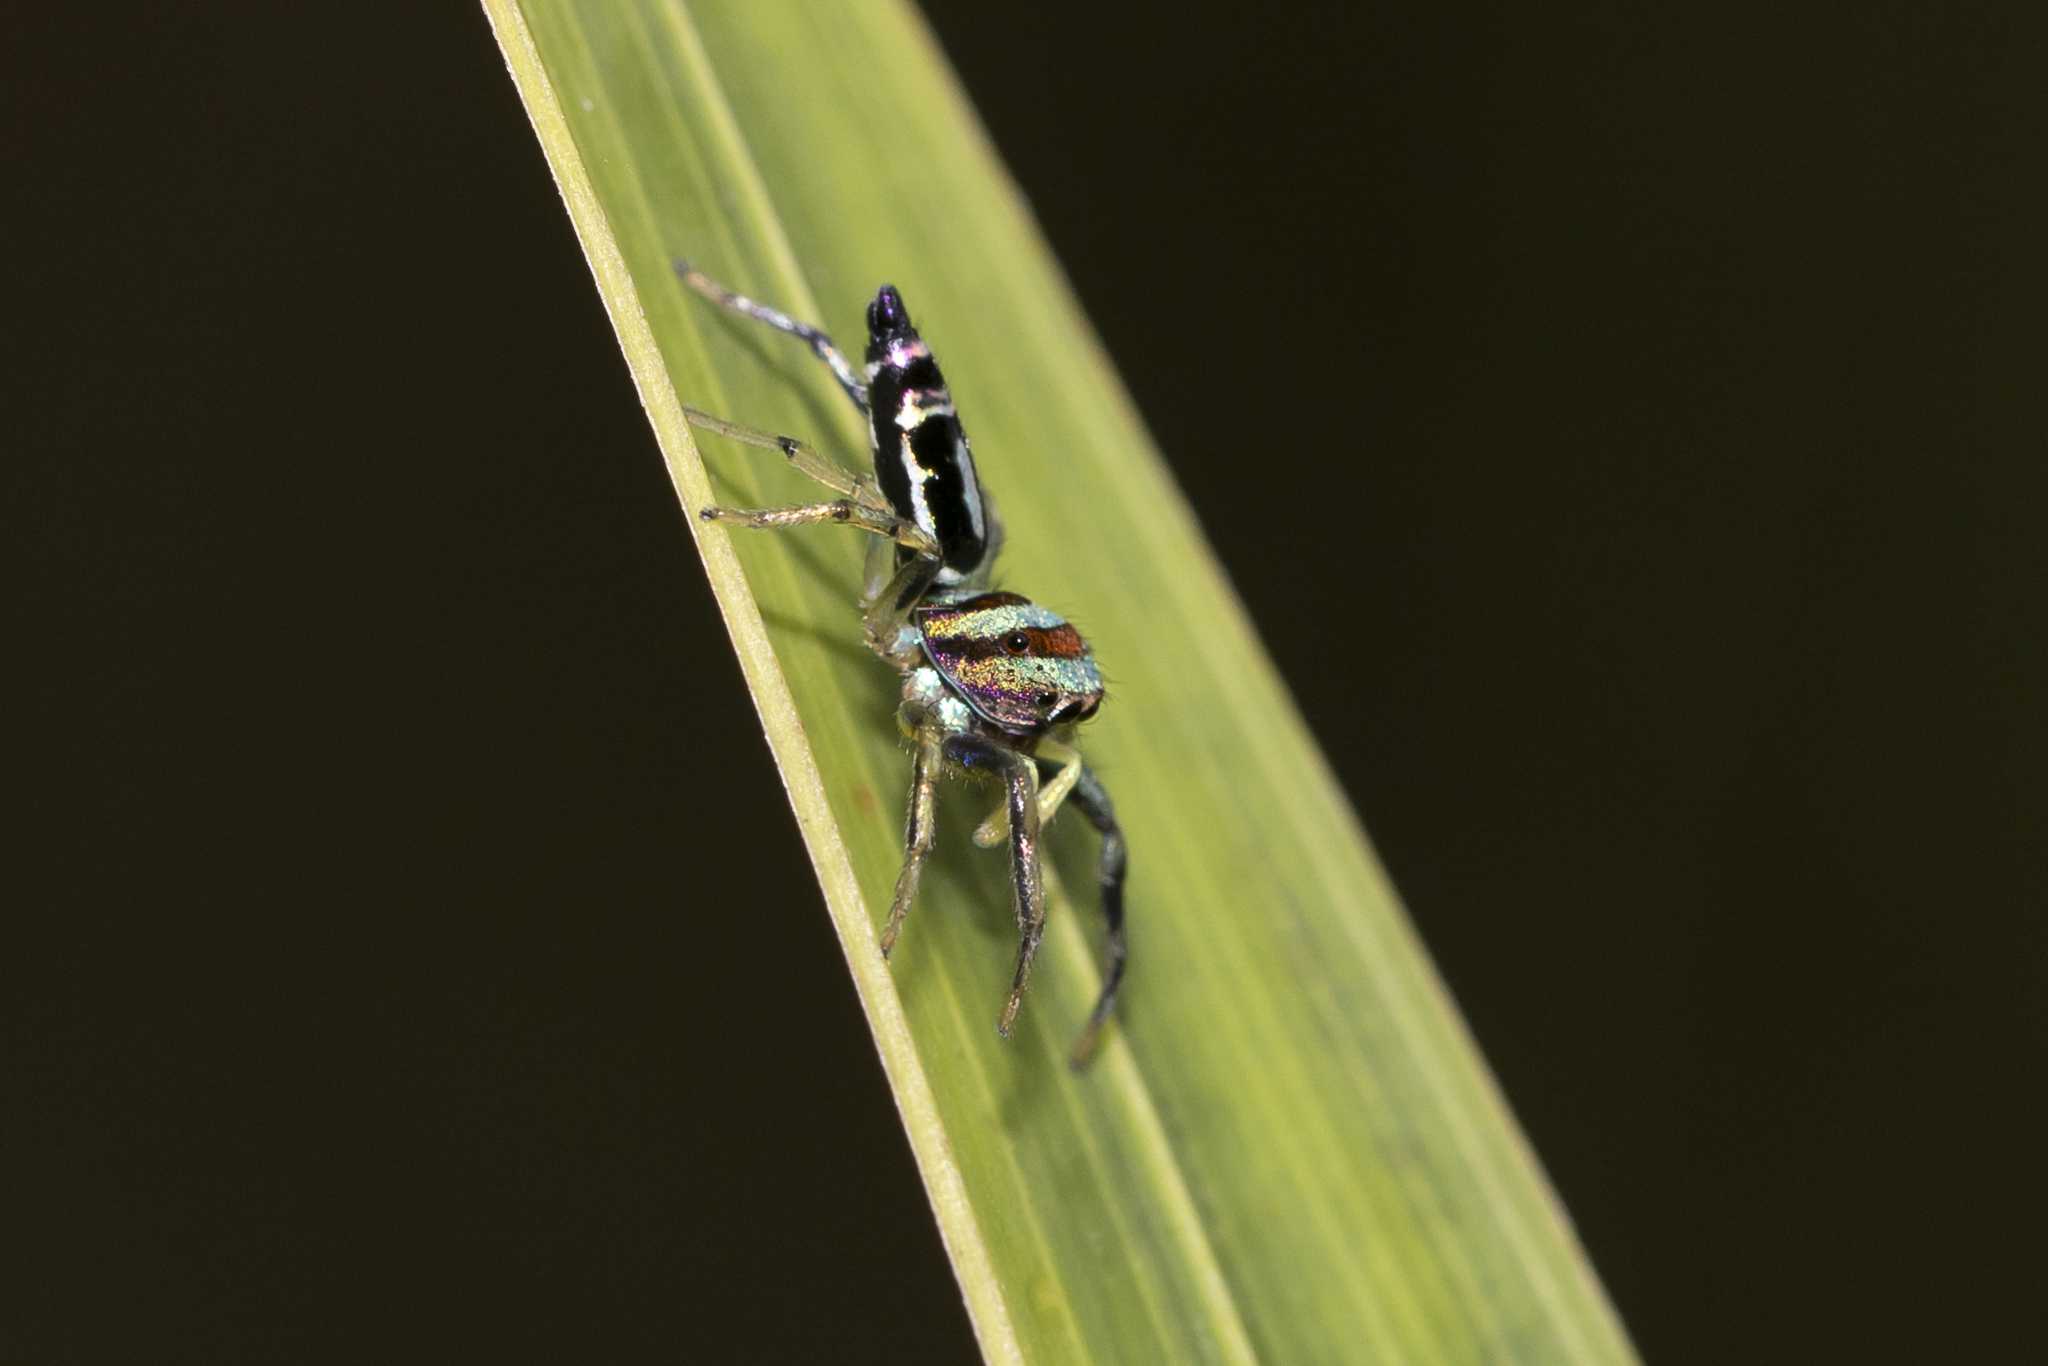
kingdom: Animalia
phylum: Arthropoda
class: Arachnida
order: Araneae
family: Salticidae
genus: Cosmophasis
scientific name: Cosmophasis micarioides
